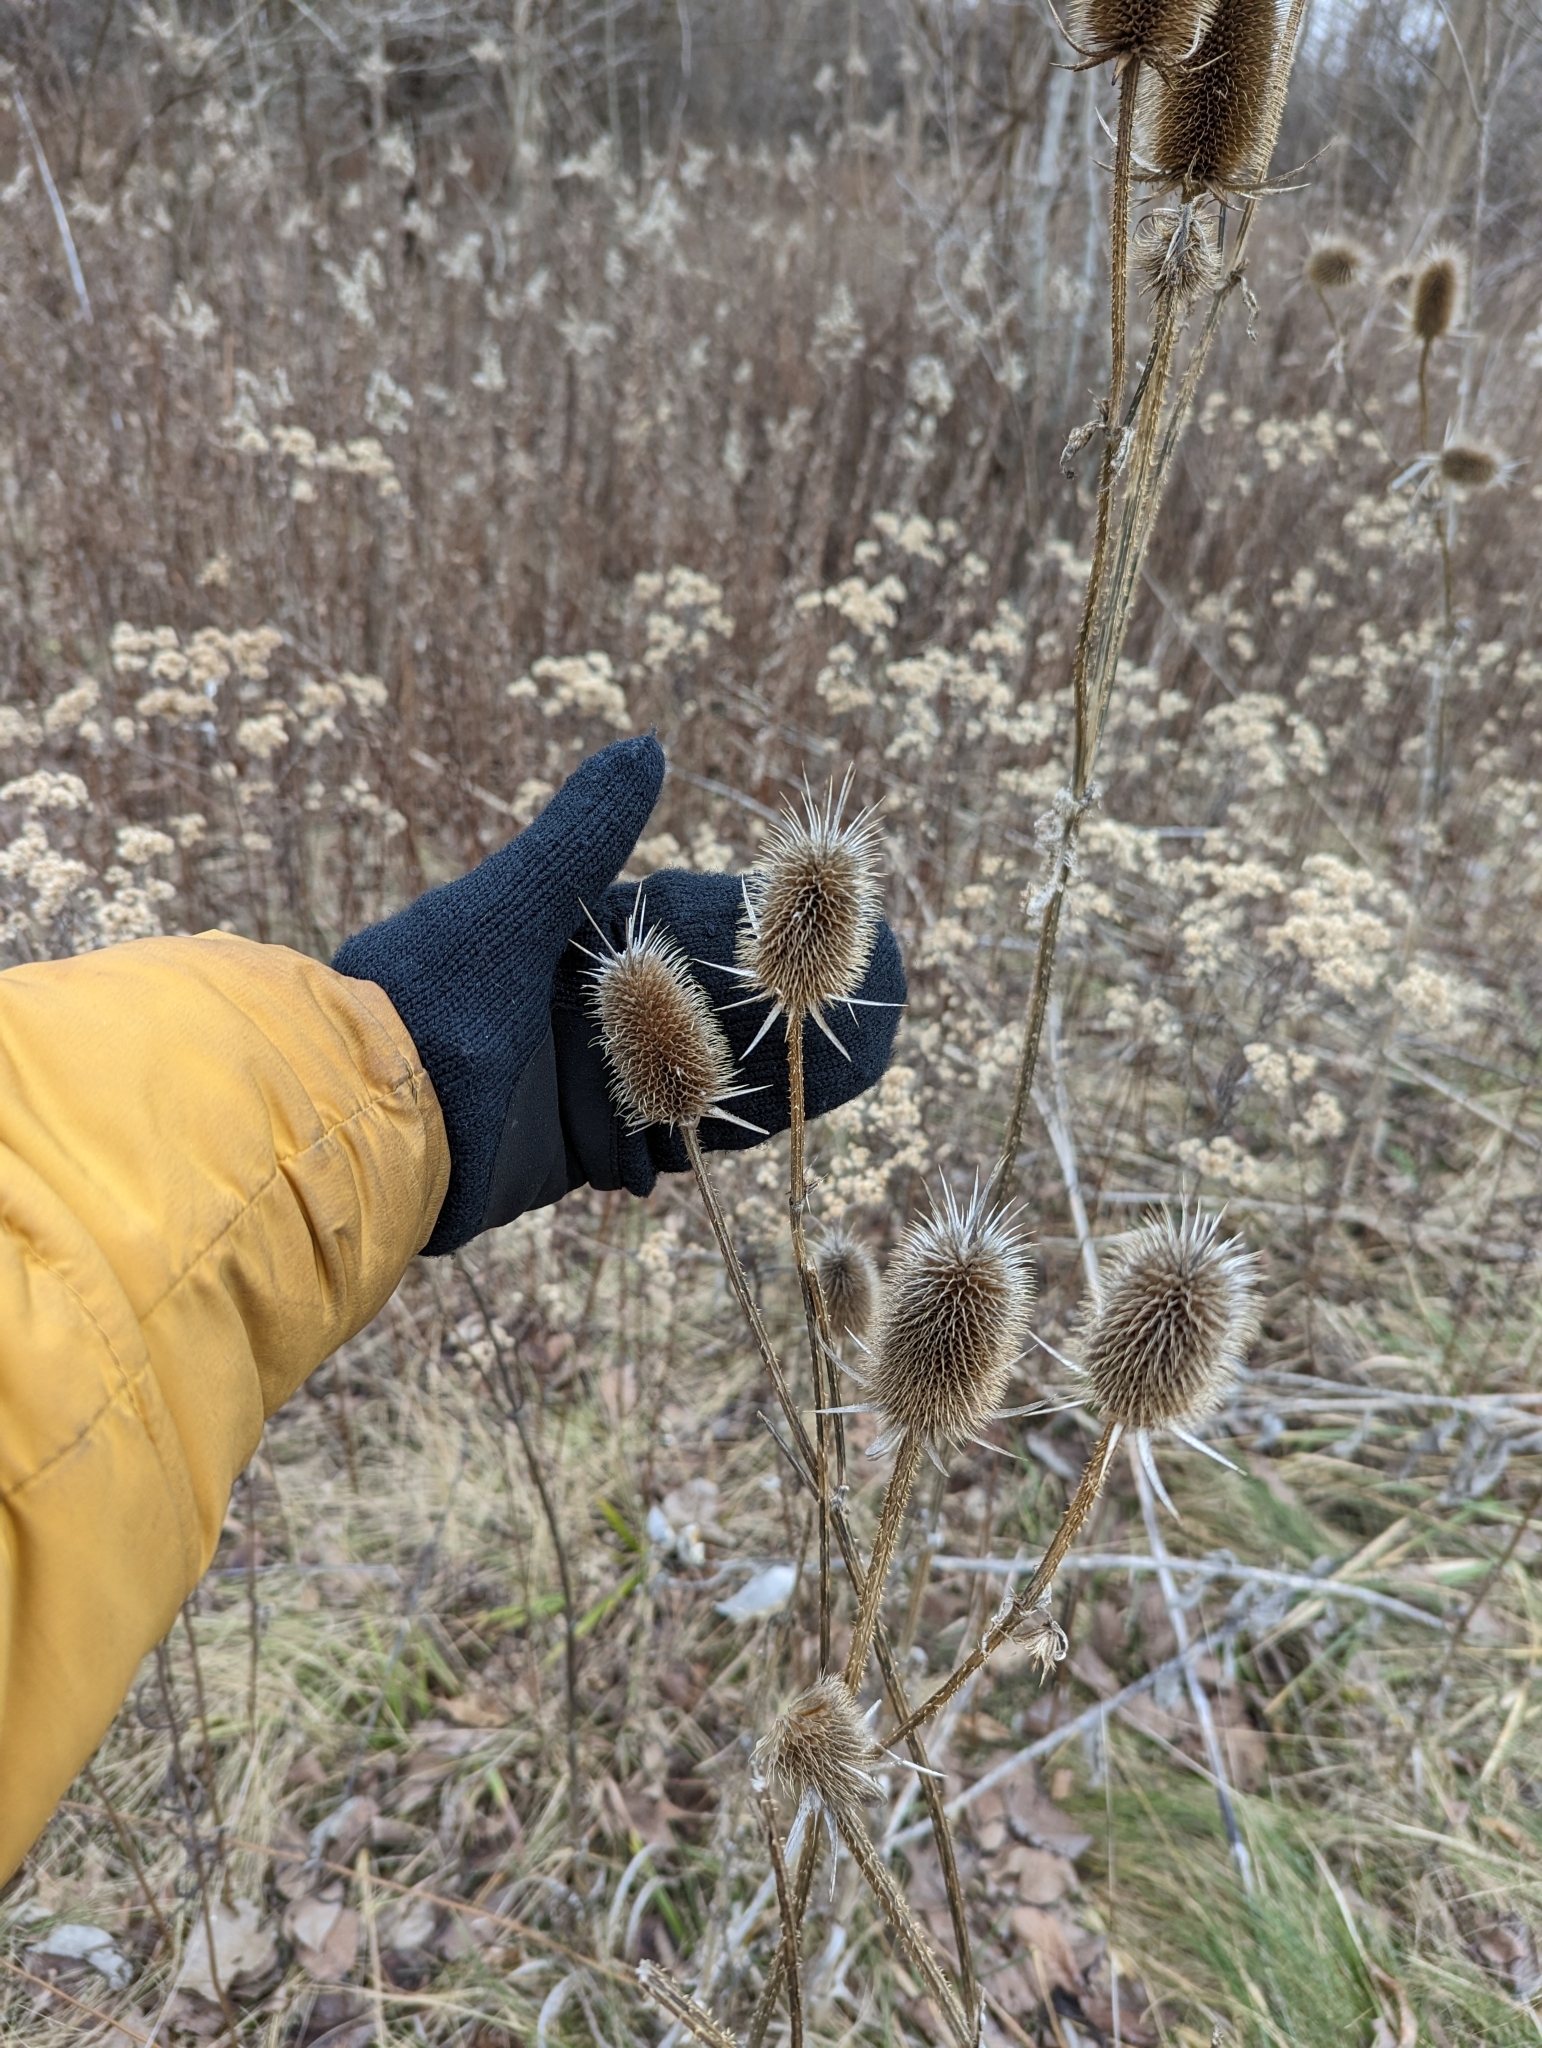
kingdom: Plantae
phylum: Tracheophyta
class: Magnoliopsida
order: Dipsacales
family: Caprifoliaceae
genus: Dipsacus
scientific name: Dipsacus laciniatus
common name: Cut-leaved teasel
